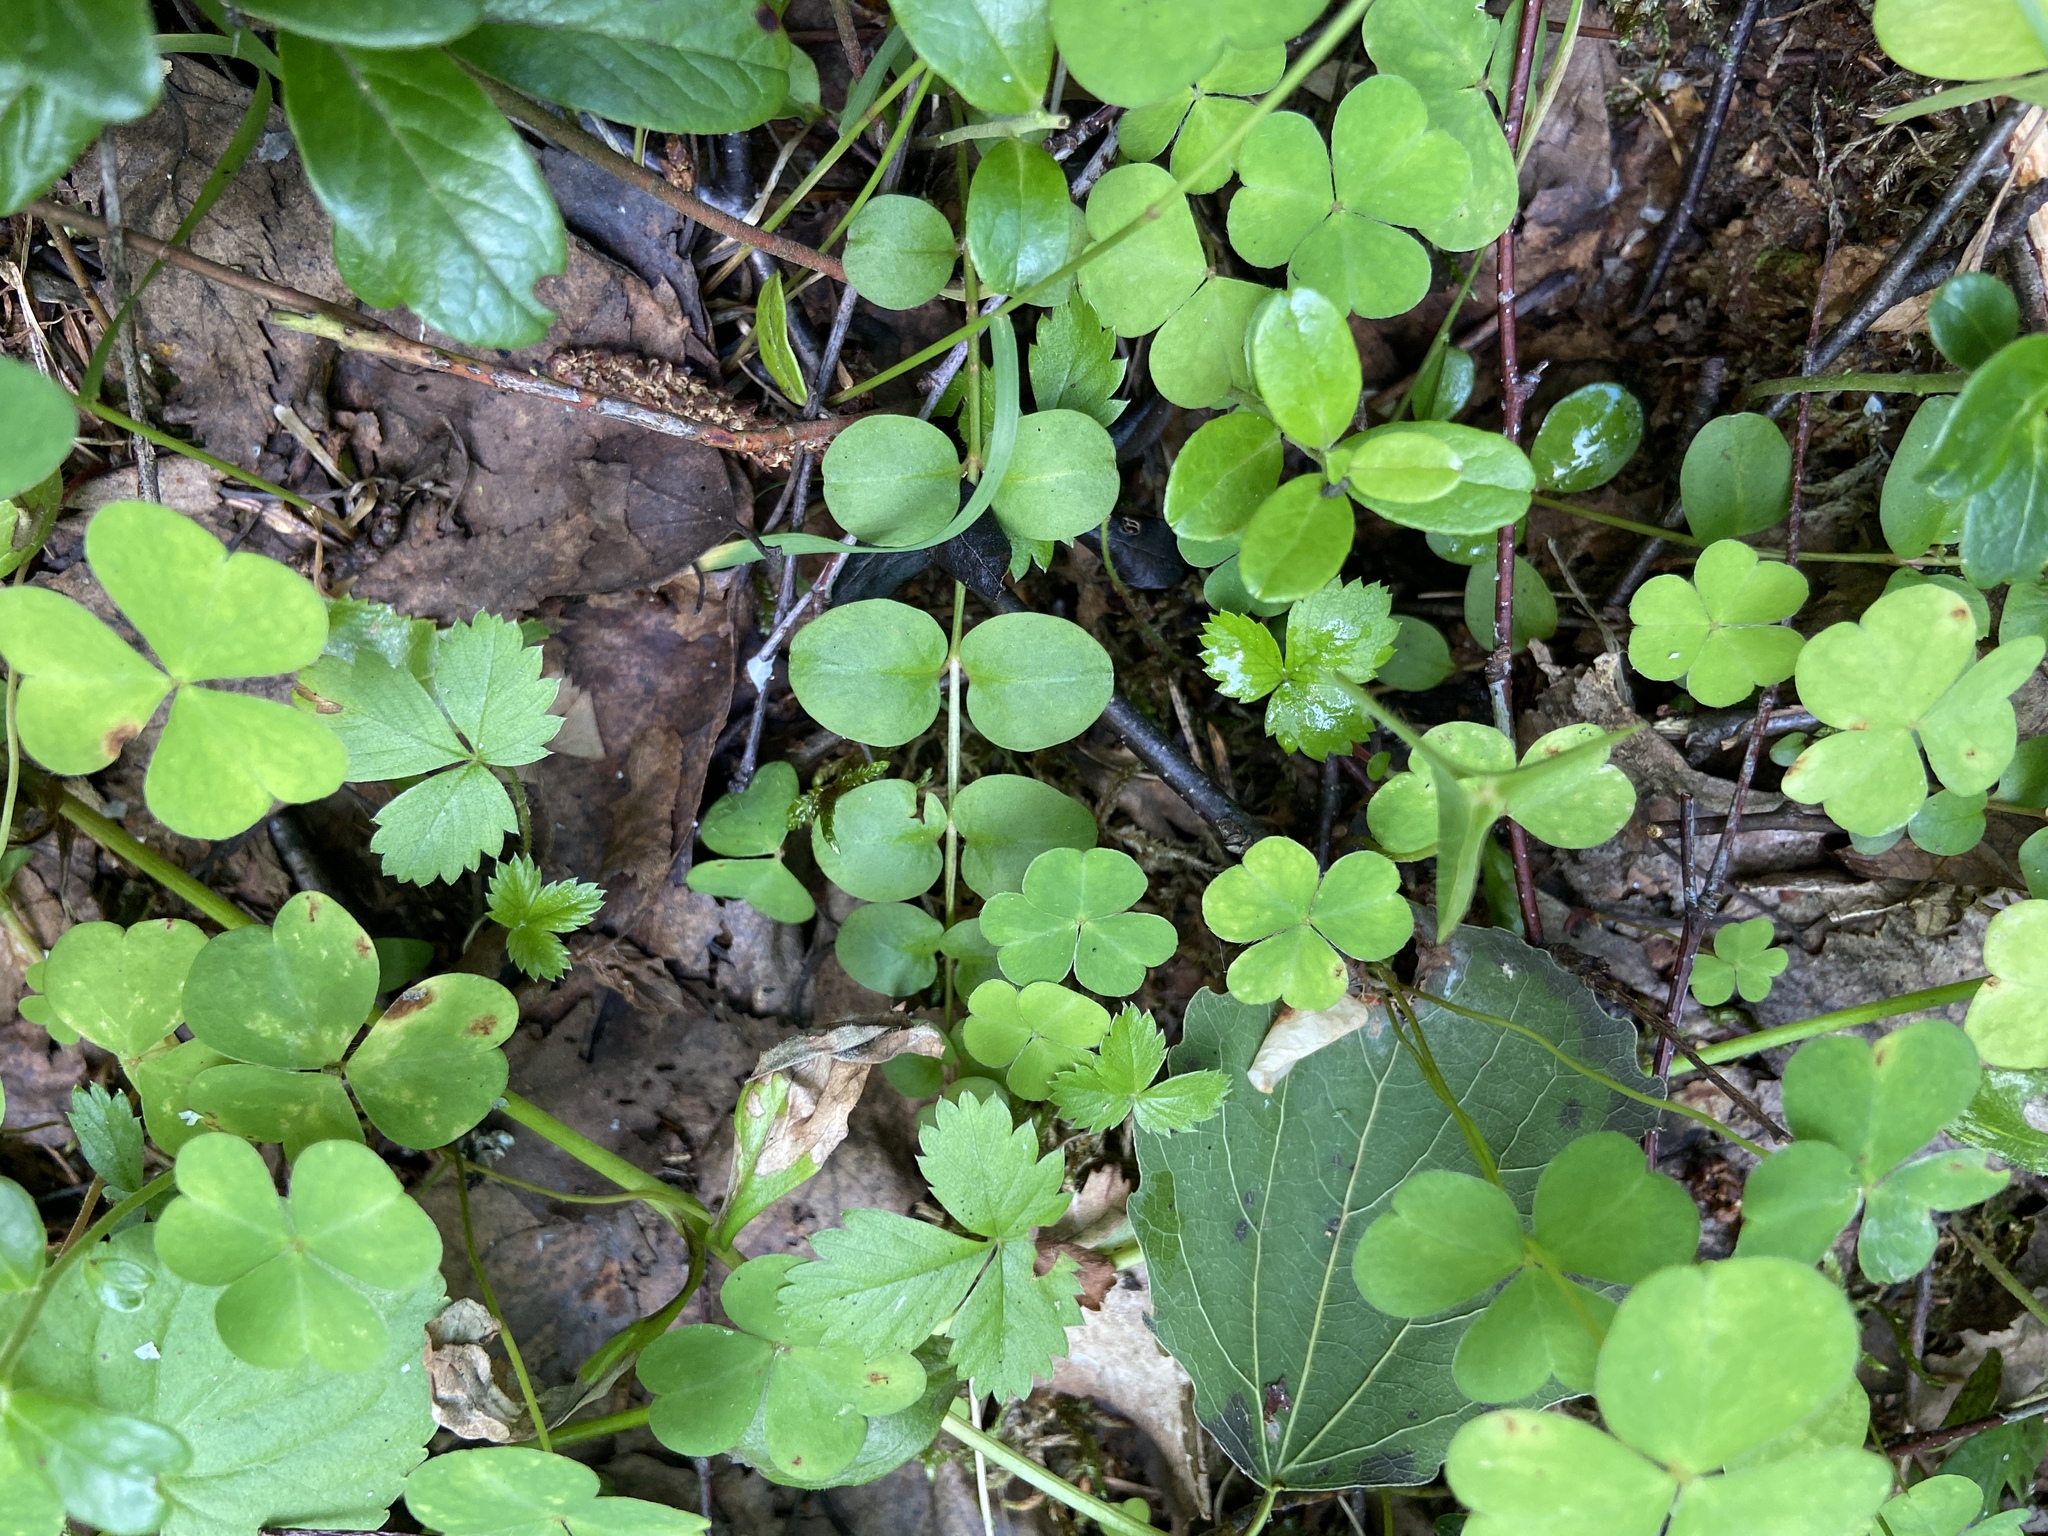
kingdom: Plantae
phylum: Tracheophyta
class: Magnoliopsida
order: Ericales
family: Primulaceae
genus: Lysimachia
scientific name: Lysimachia nummularia
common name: Moneywort
